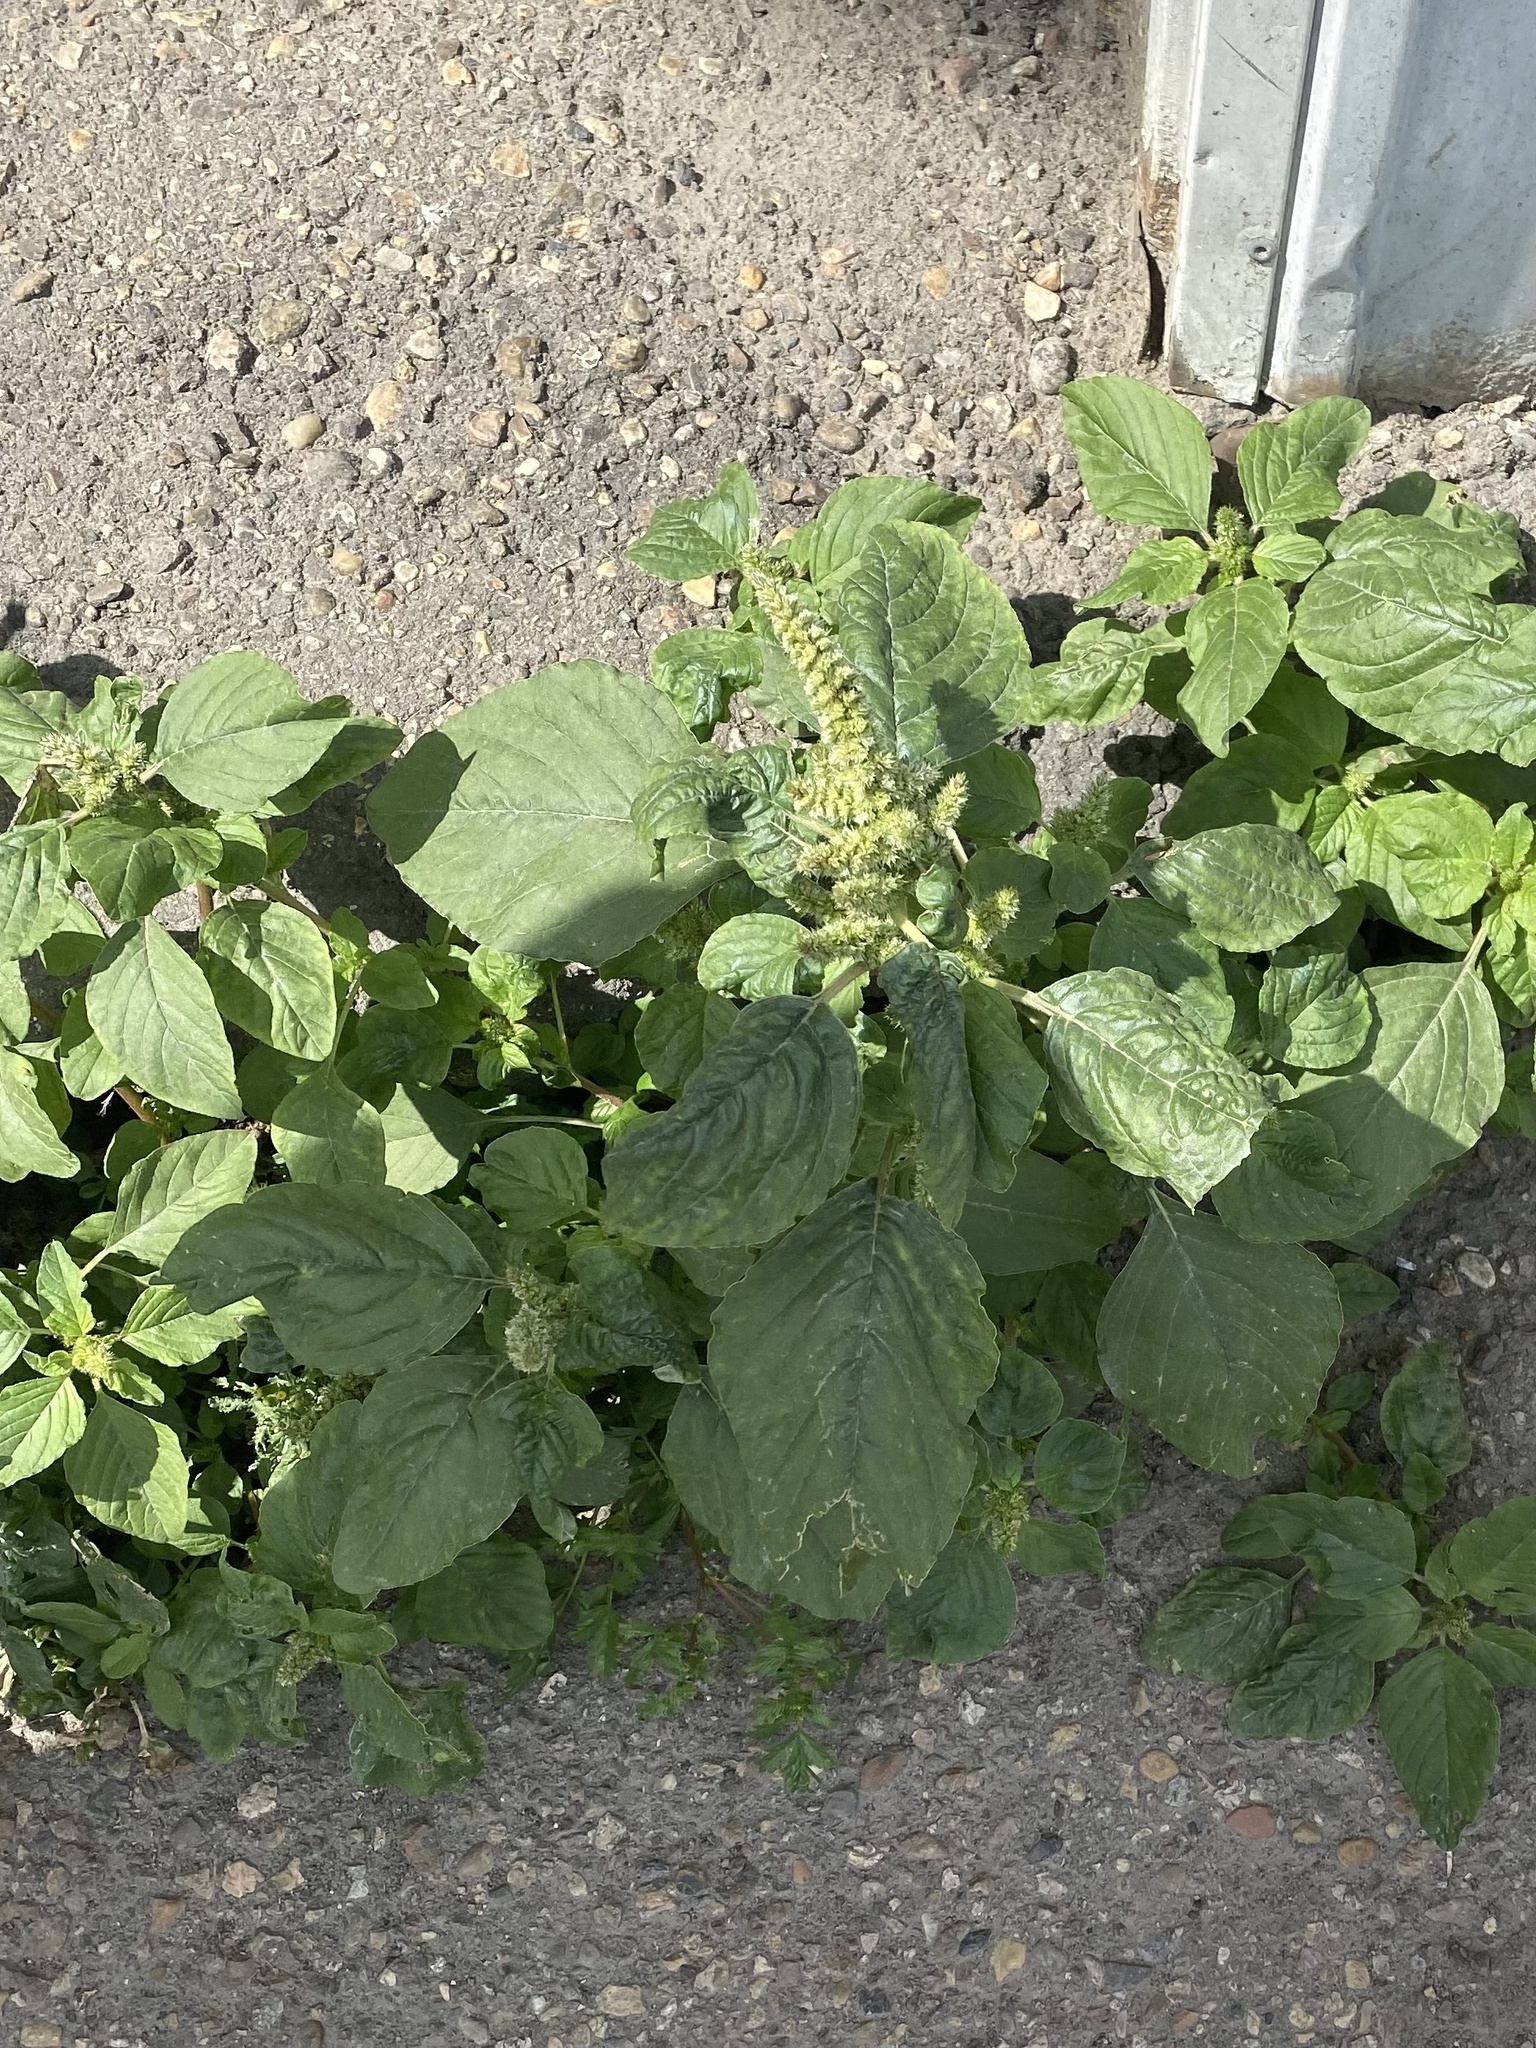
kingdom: Plantae
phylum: Tracheophyta
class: Magnoliopsida
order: Caryophyllales
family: Amaranthaceae
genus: Amaranthus
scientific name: Amaranthus retroflexus
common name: Redroot amaranth
